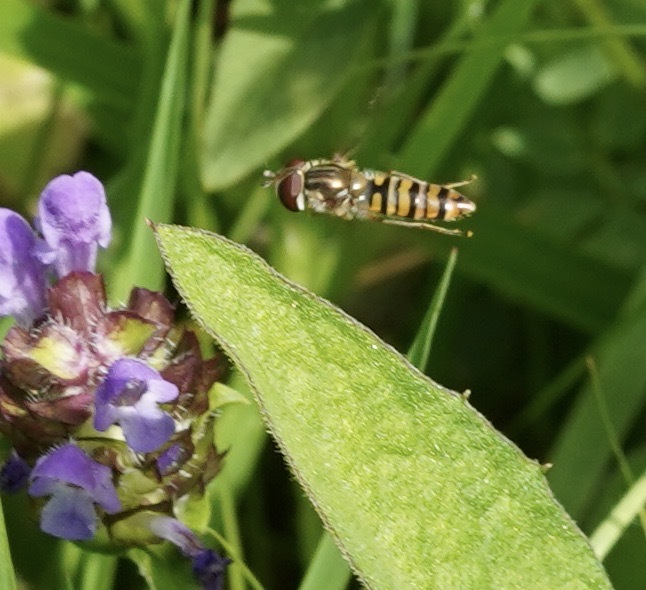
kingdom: Animalia
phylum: Arthropoda
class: Insecta
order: Diptera
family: Syrphidae
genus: Episyrphus
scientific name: Episyrphus balteatus
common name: Marmalade hoverfly
